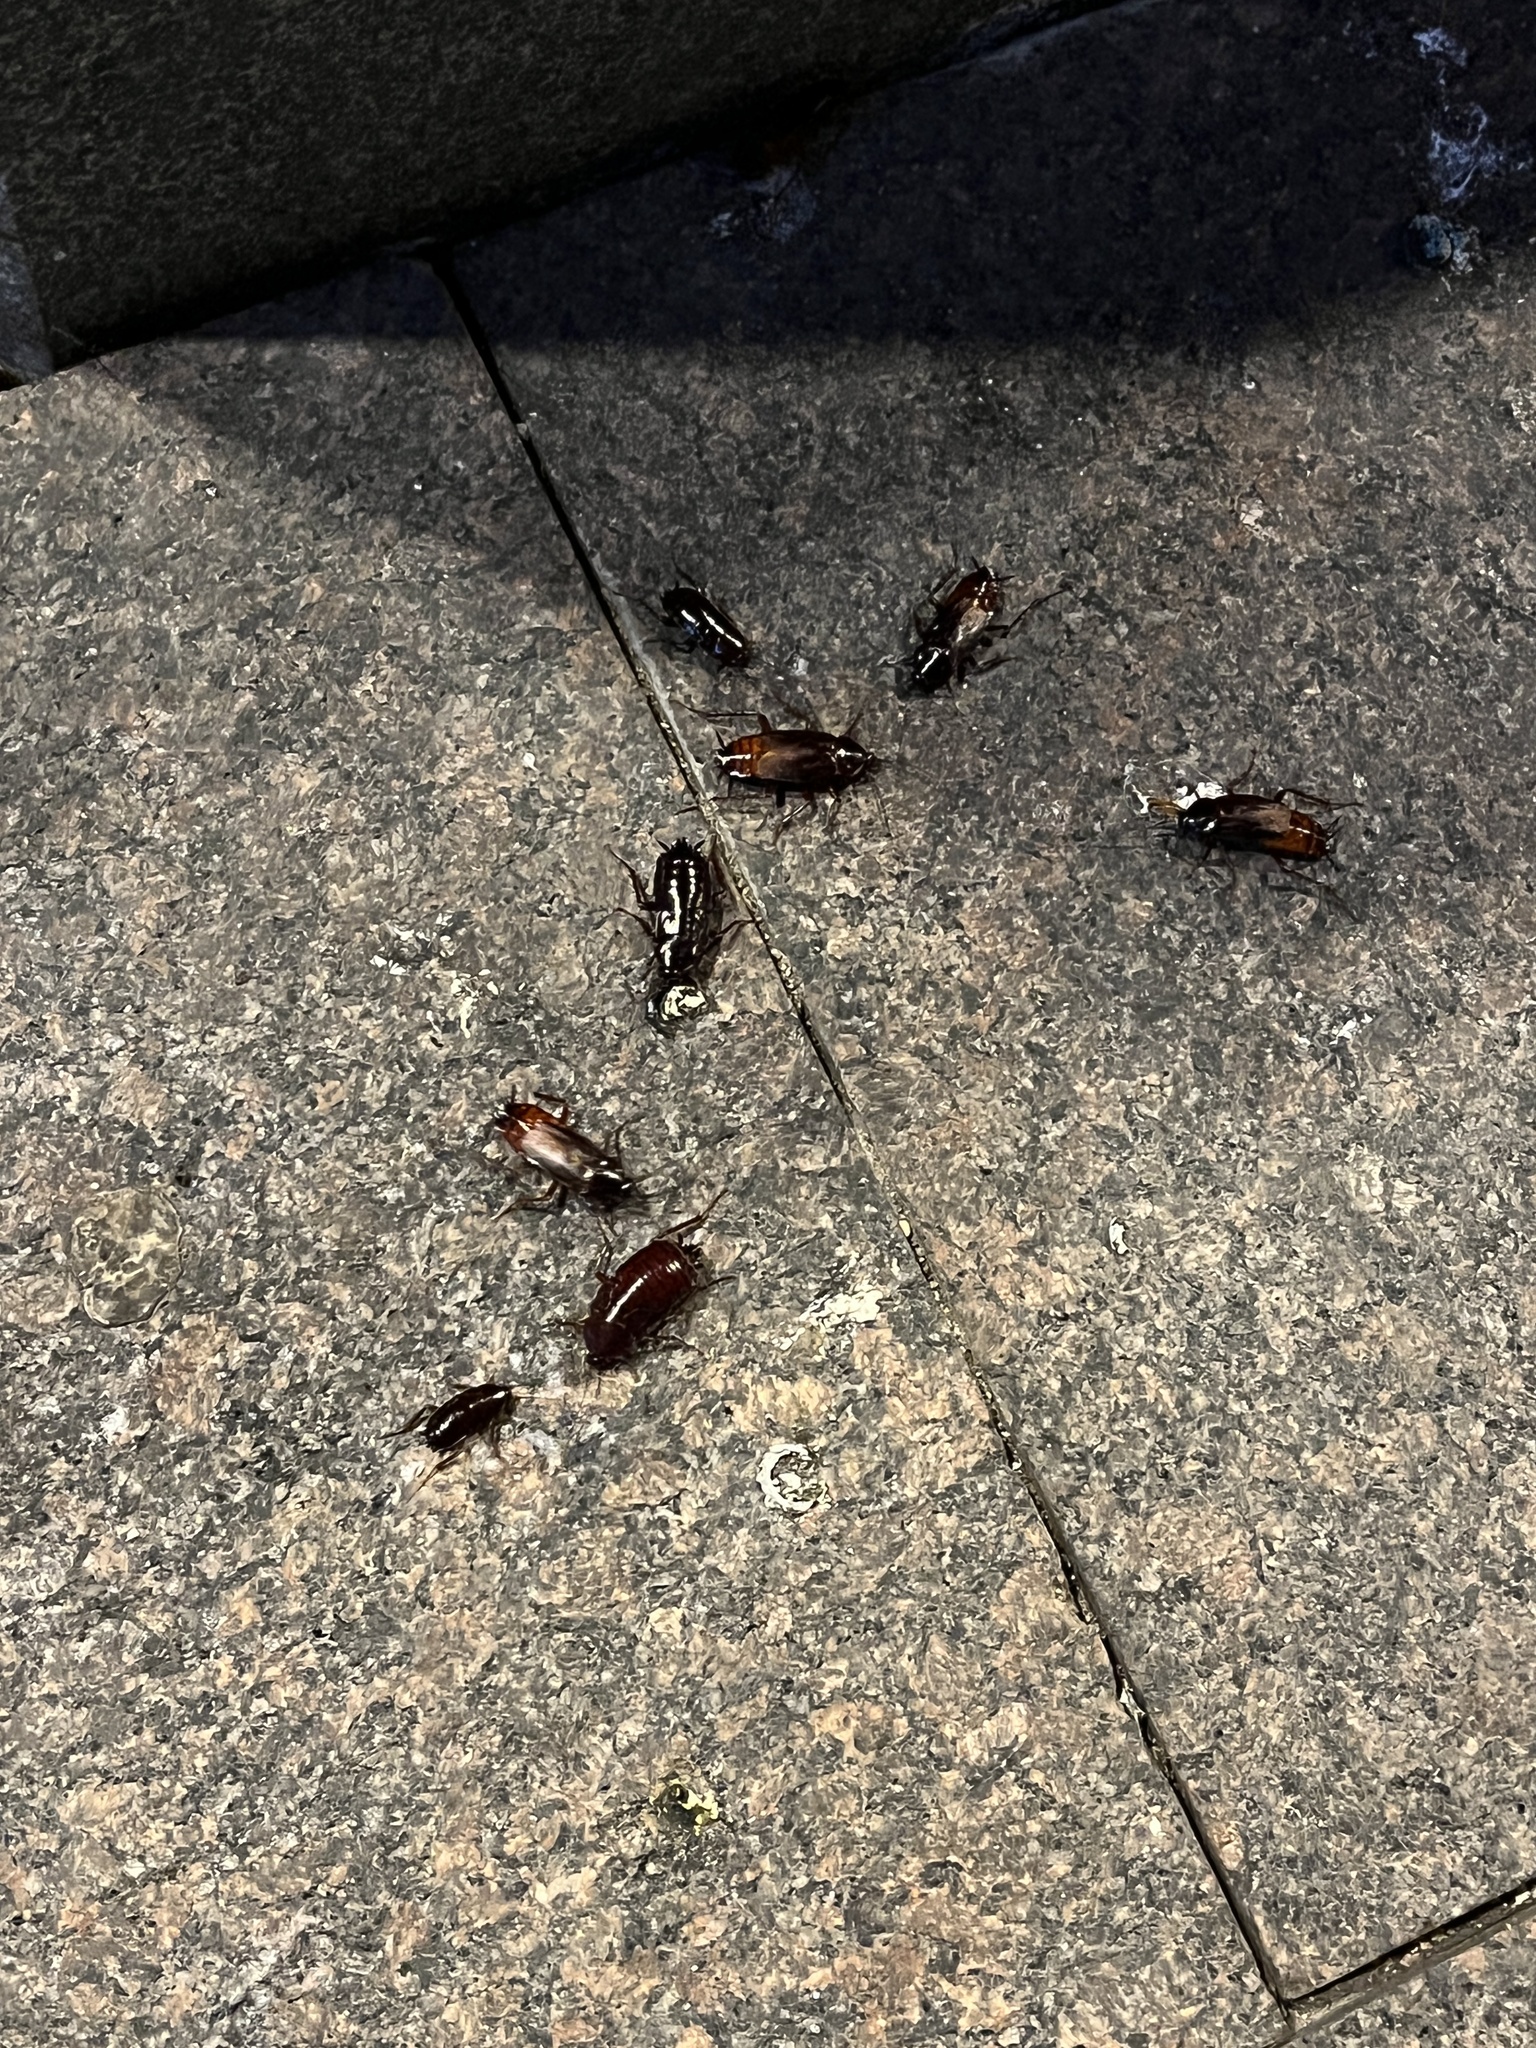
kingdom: Animalia
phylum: Arthropoda
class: Insecta
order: Blattodea
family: Blattidae
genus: Blatta
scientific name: Blatta orientalis
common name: Oriental cockroach
